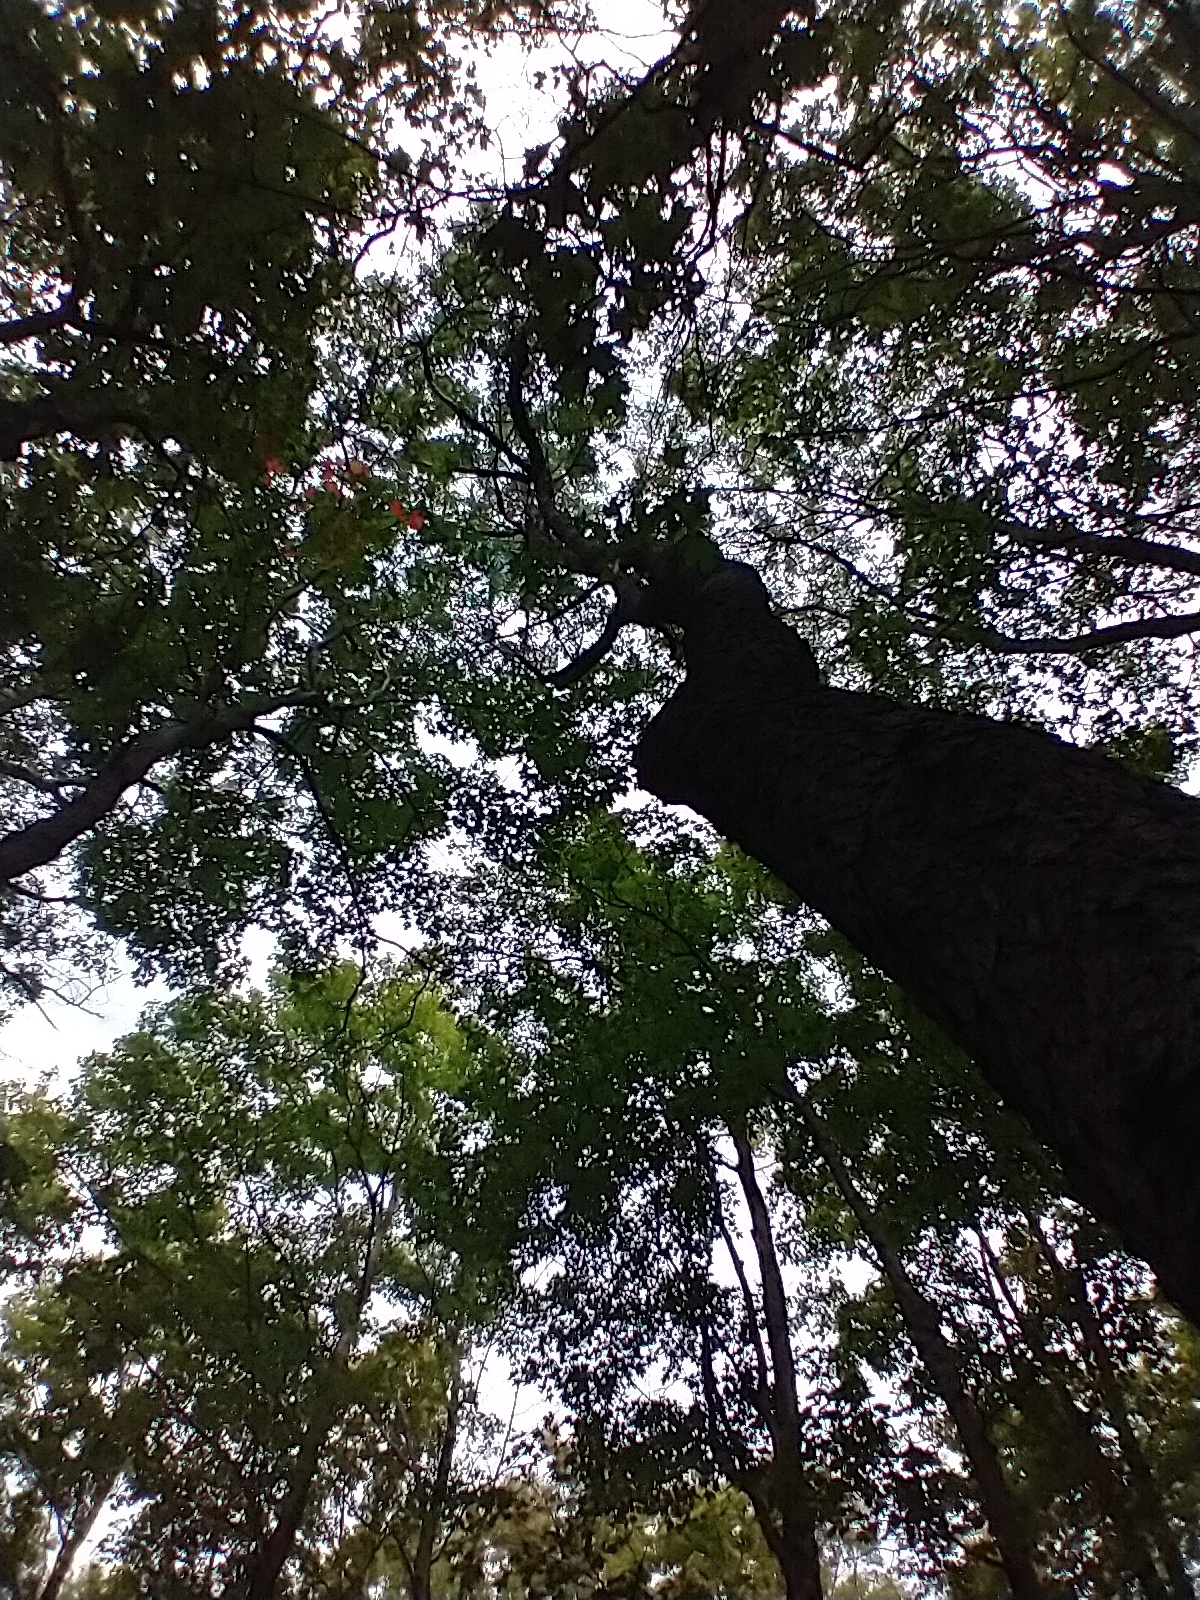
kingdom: Plantae
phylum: Tracheophyta
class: Magnoliopsida
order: Rosales
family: Rosaceae
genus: Prunus
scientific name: Prunus serotina
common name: Black cherry
